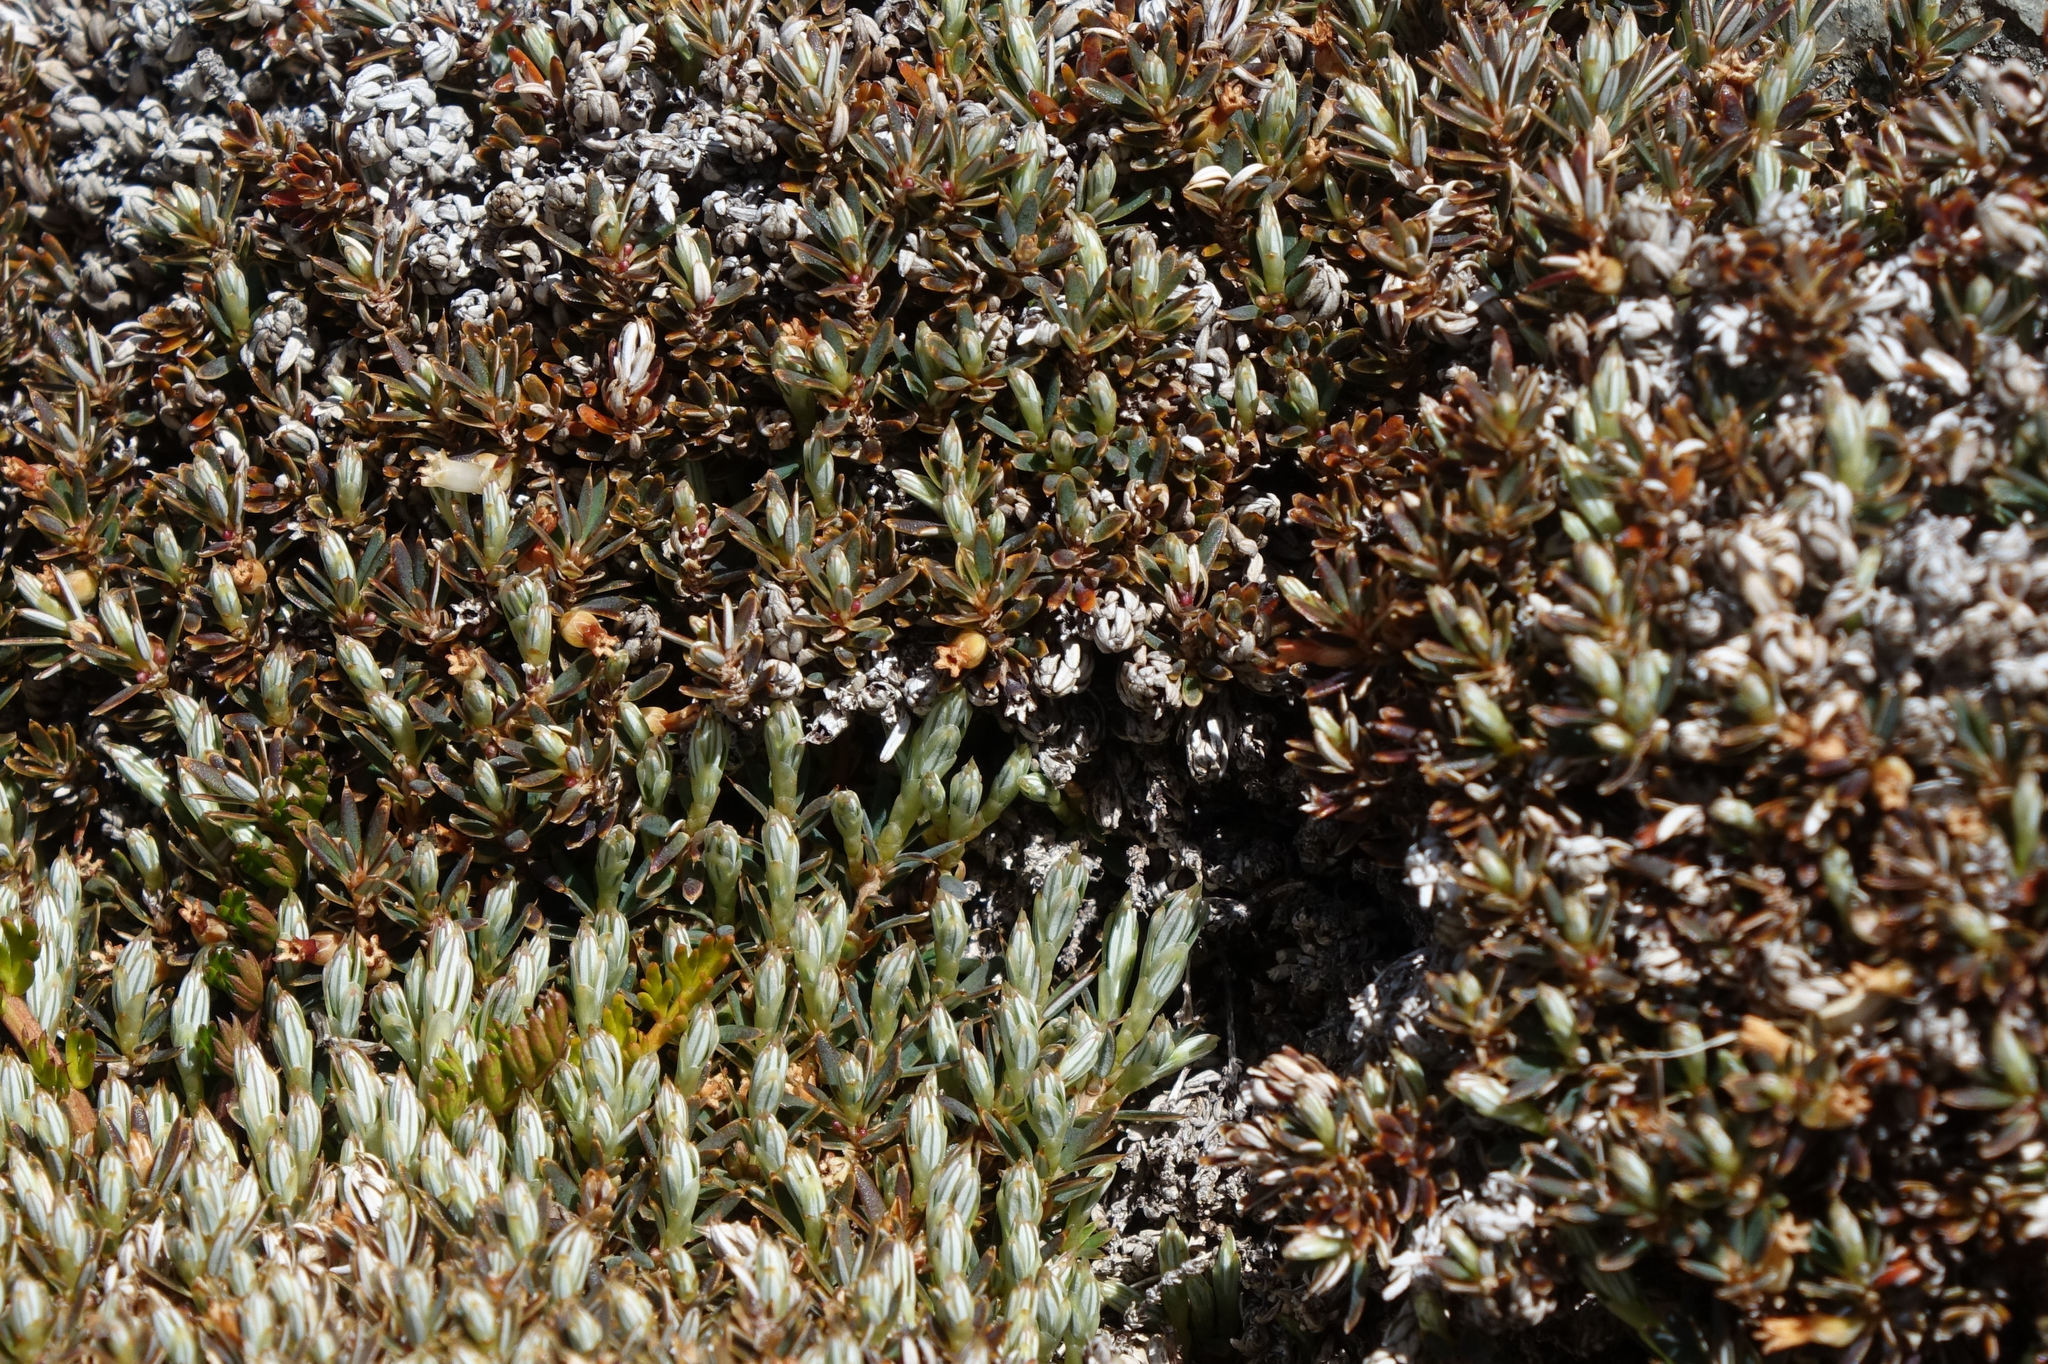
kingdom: Plantae
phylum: Tracheophyta
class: Magnoliopsida
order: Ericales
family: Ericaceae
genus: Montitega
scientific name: Montitega dealbata
